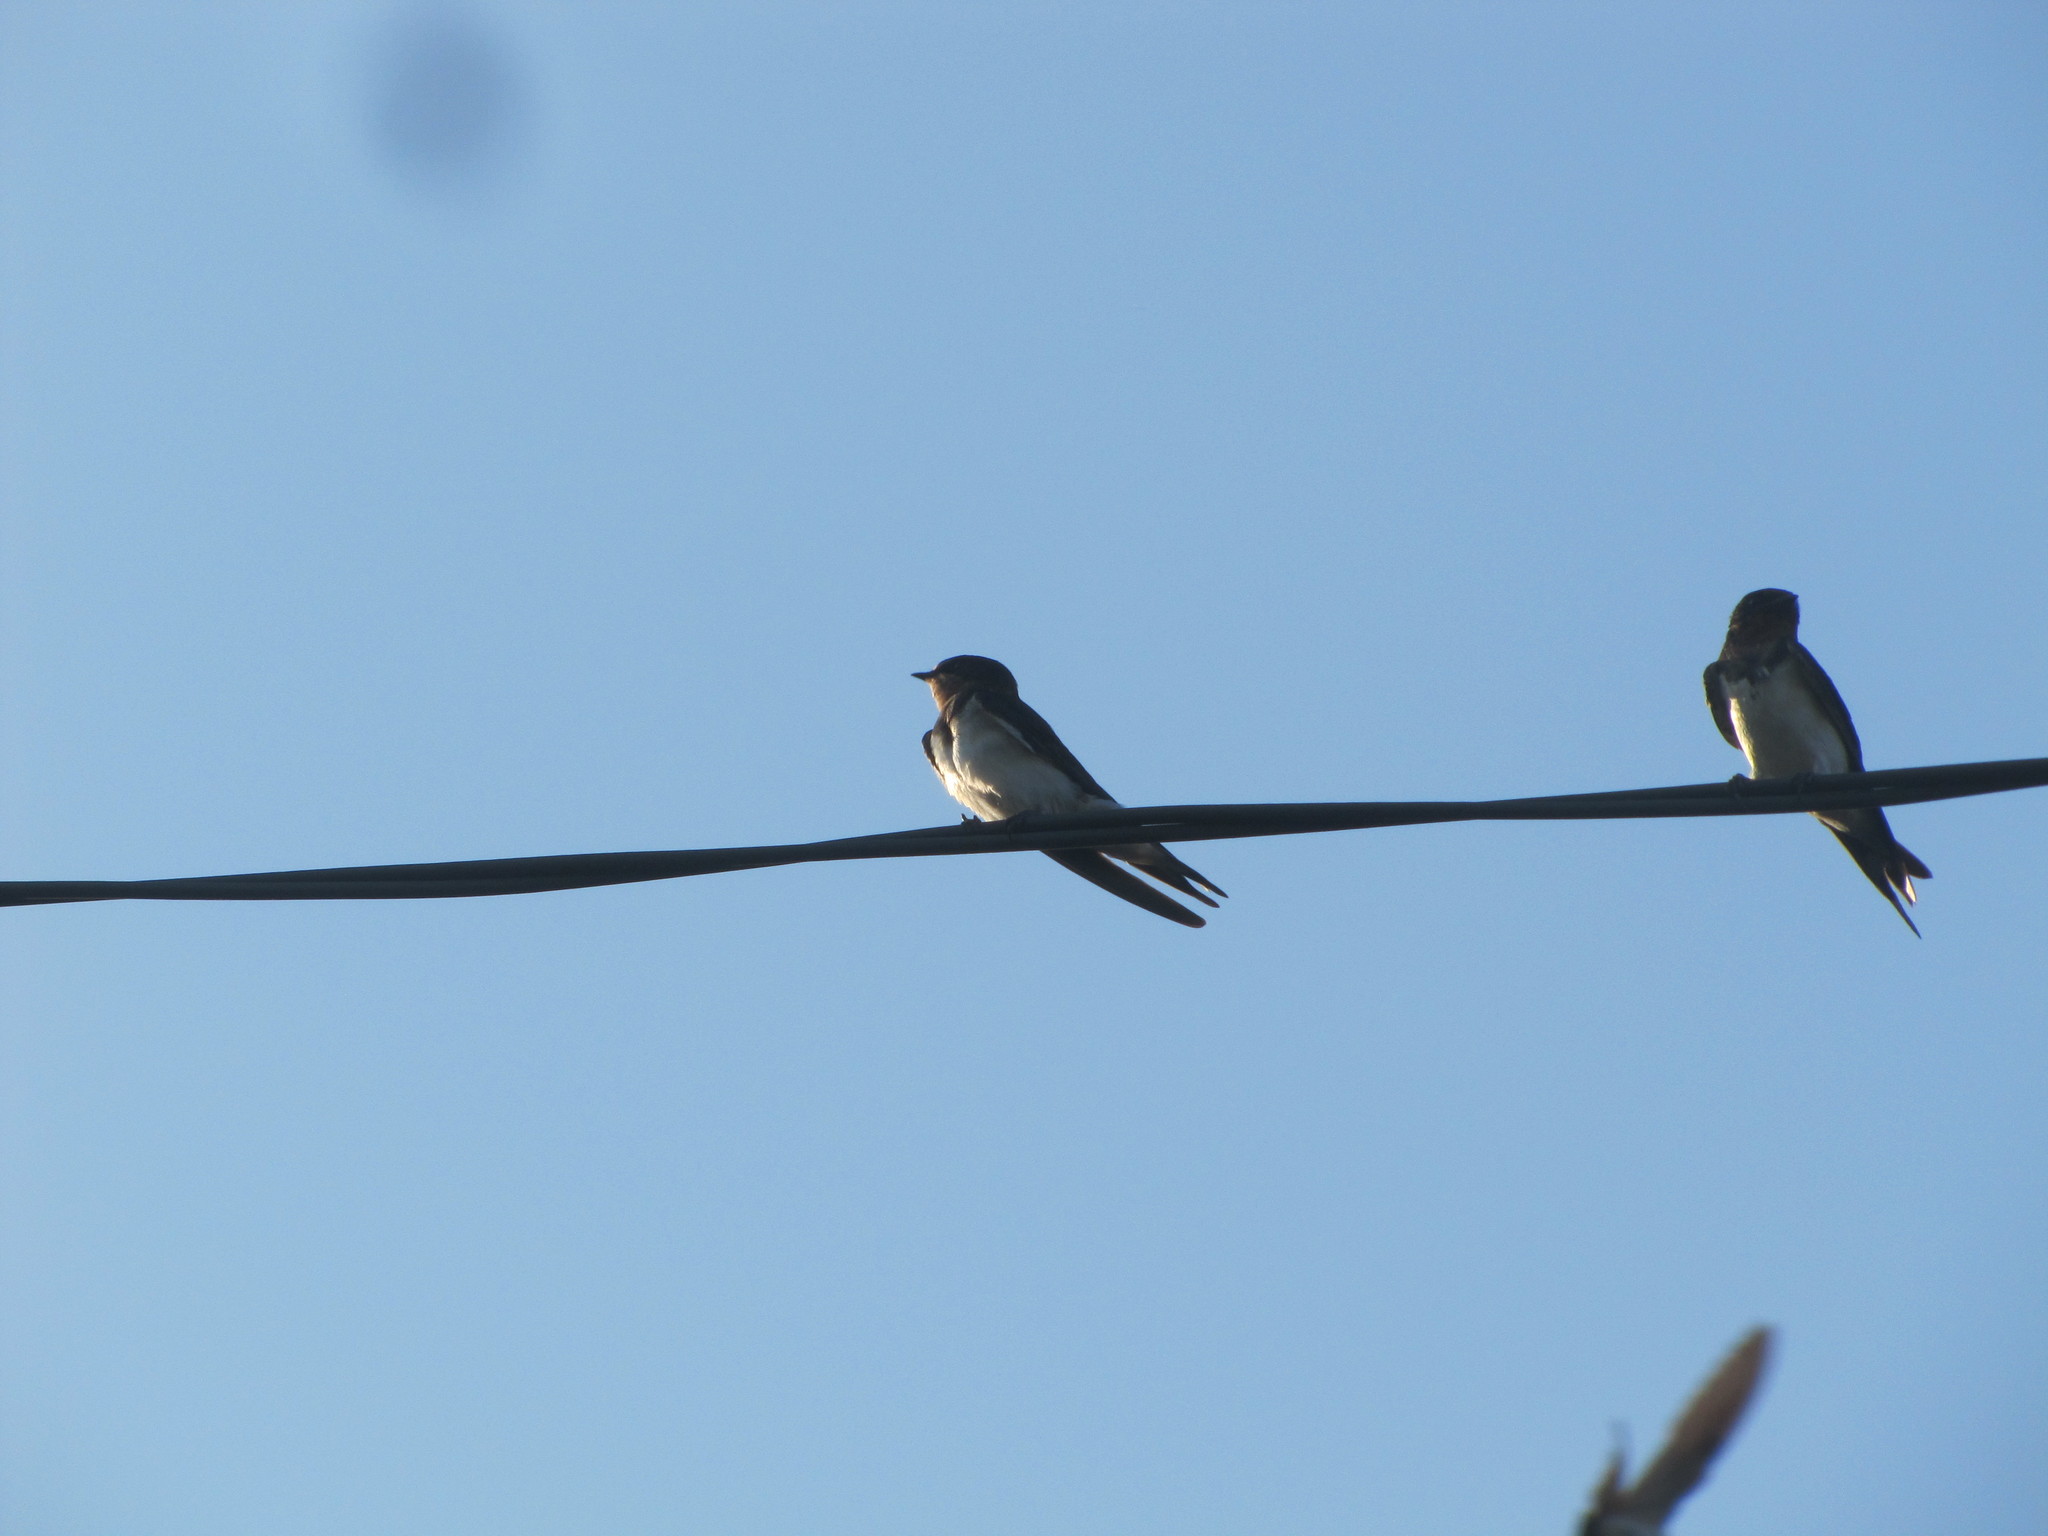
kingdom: Animalia
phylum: Chordata
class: Aves
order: Passeriformes
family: Hirundinidae
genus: Hirundo
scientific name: Hirundo rustica
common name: Barn swallow
